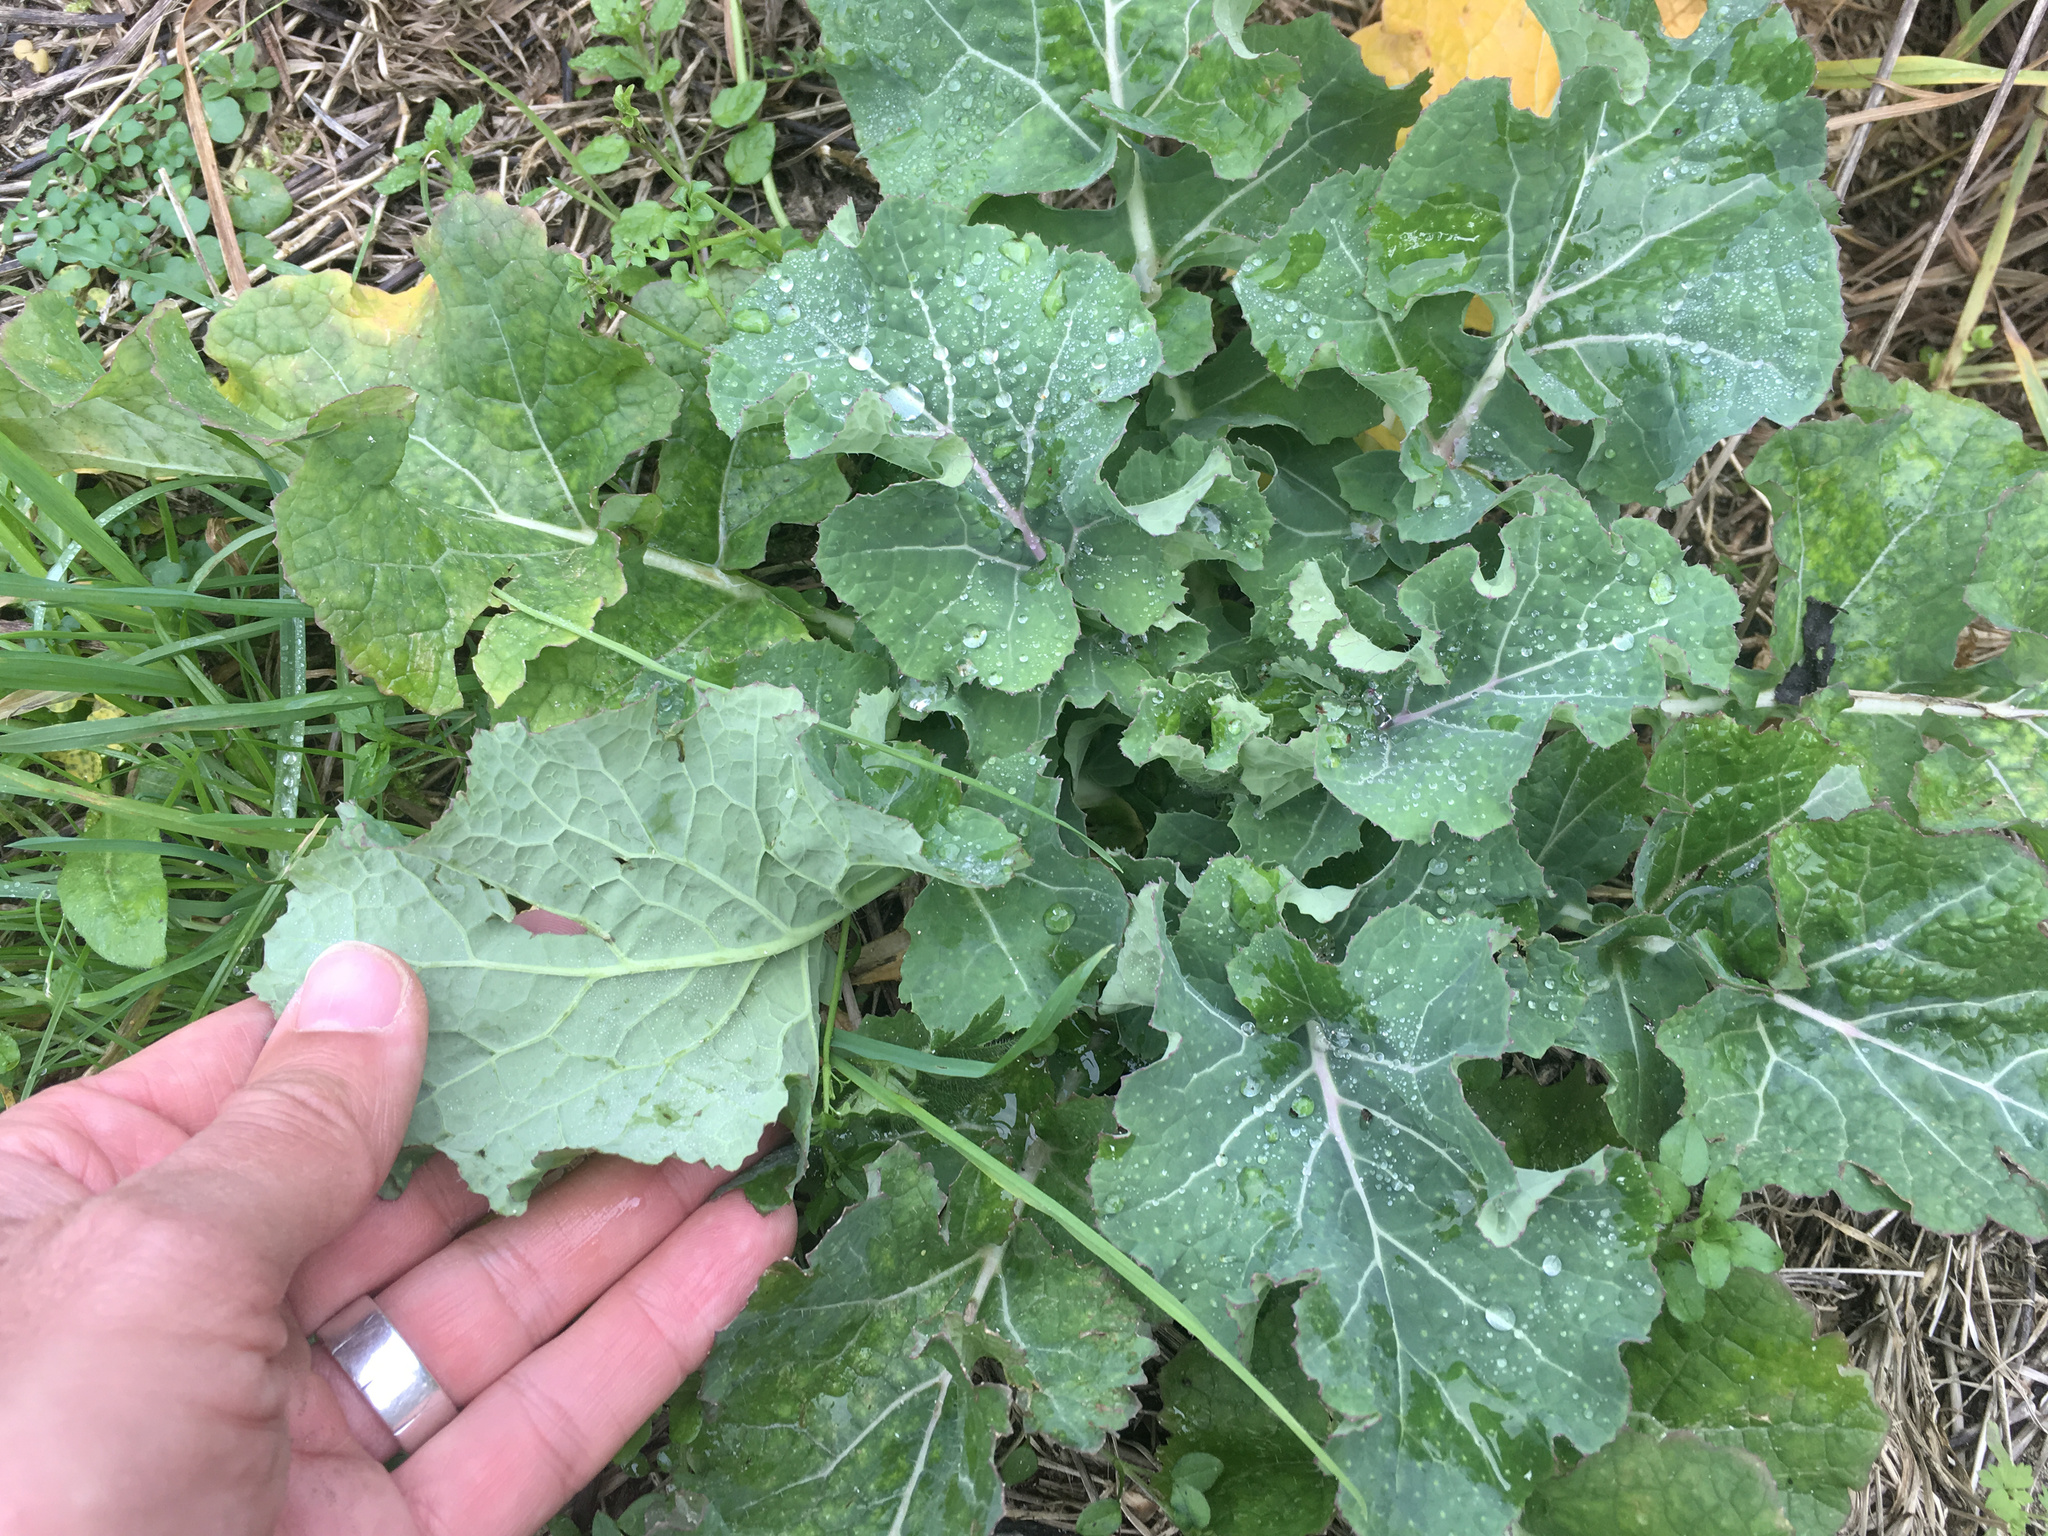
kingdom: Plantae
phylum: Tracheophyta
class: Magnoliopsida
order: Brassicales
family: Brassicaceae
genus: Brassica
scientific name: Brassica oleracea
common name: Cabbage
